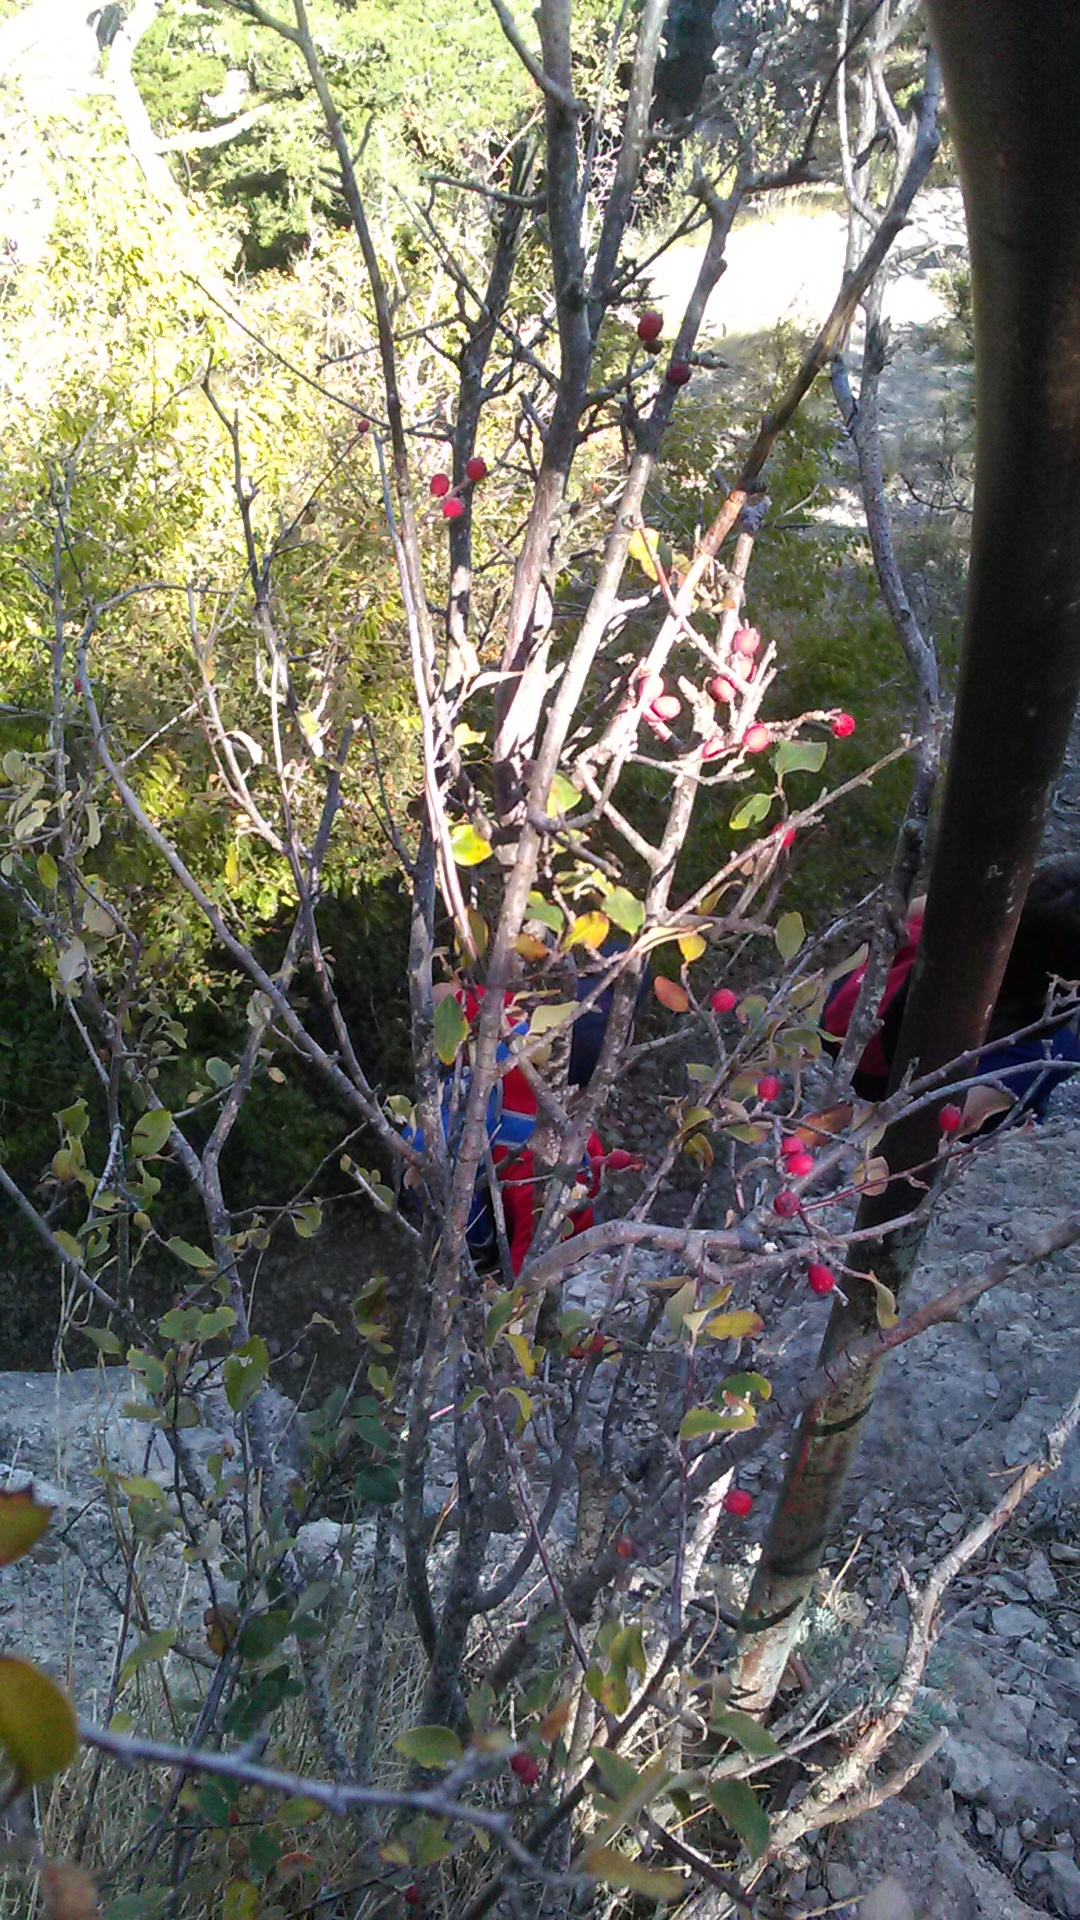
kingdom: Plantae
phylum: Tracheophyta
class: Magnoliopsida
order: Rosales
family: Rosaceae
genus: Cotoneaster
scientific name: Cotoneaster tauricus
